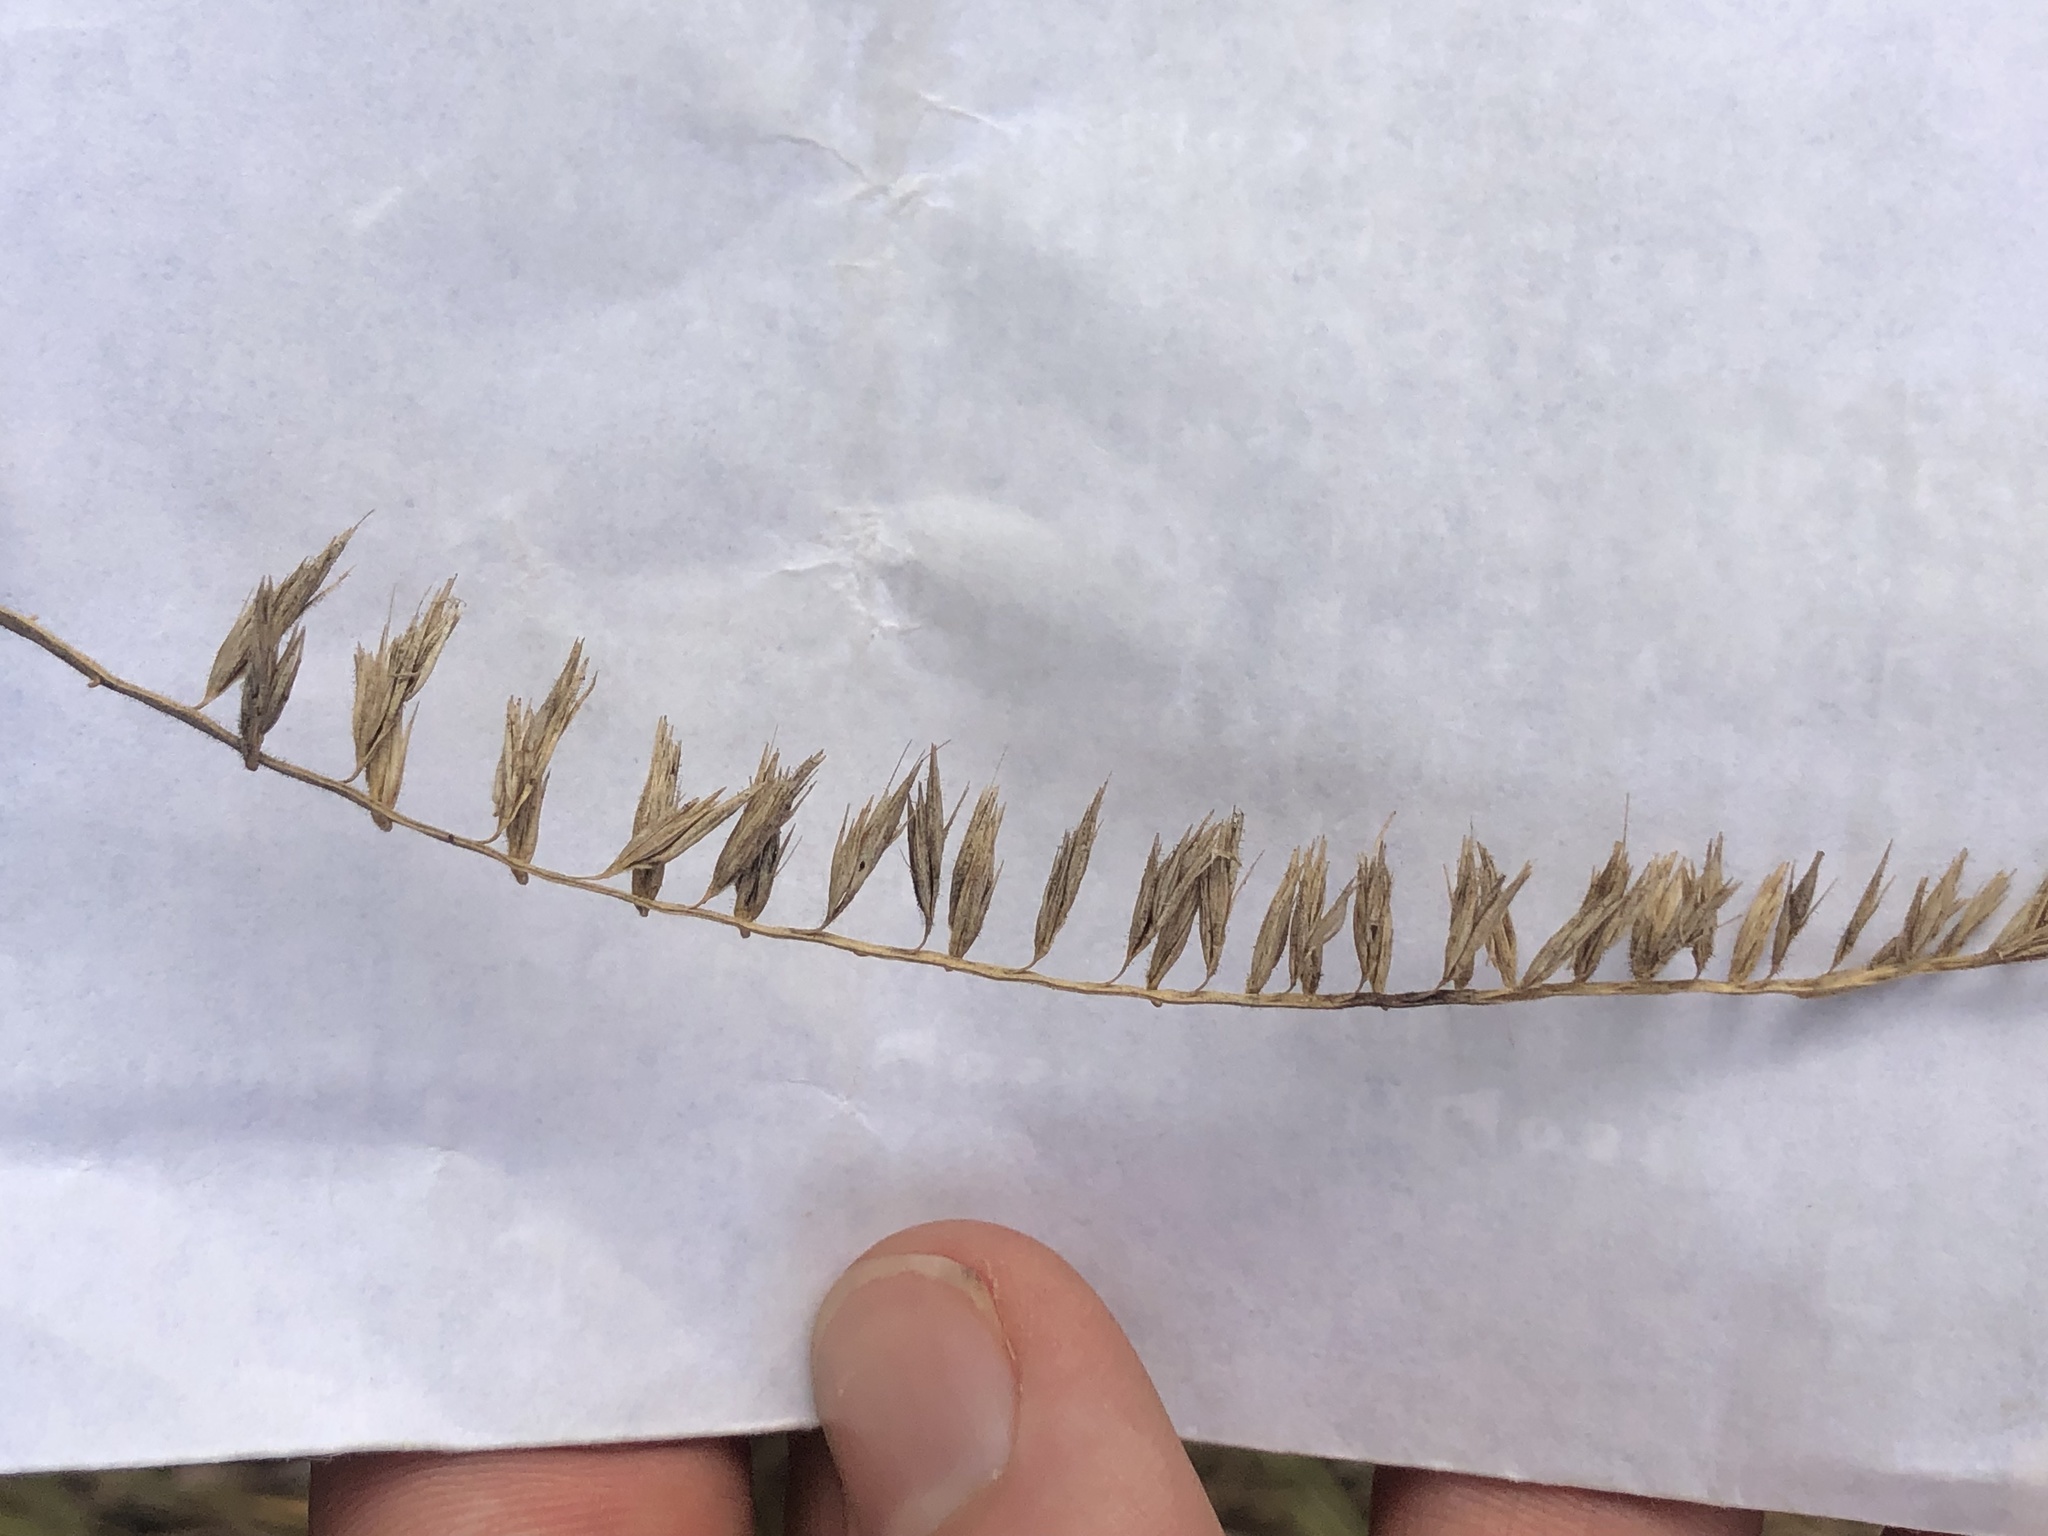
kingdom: Plantae
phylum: Tracheophyta
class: Liliopsida
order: Poales
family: Poaceae
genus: Bouteloua
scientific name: Bouteloua curtipendula
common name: Side-oats grama
